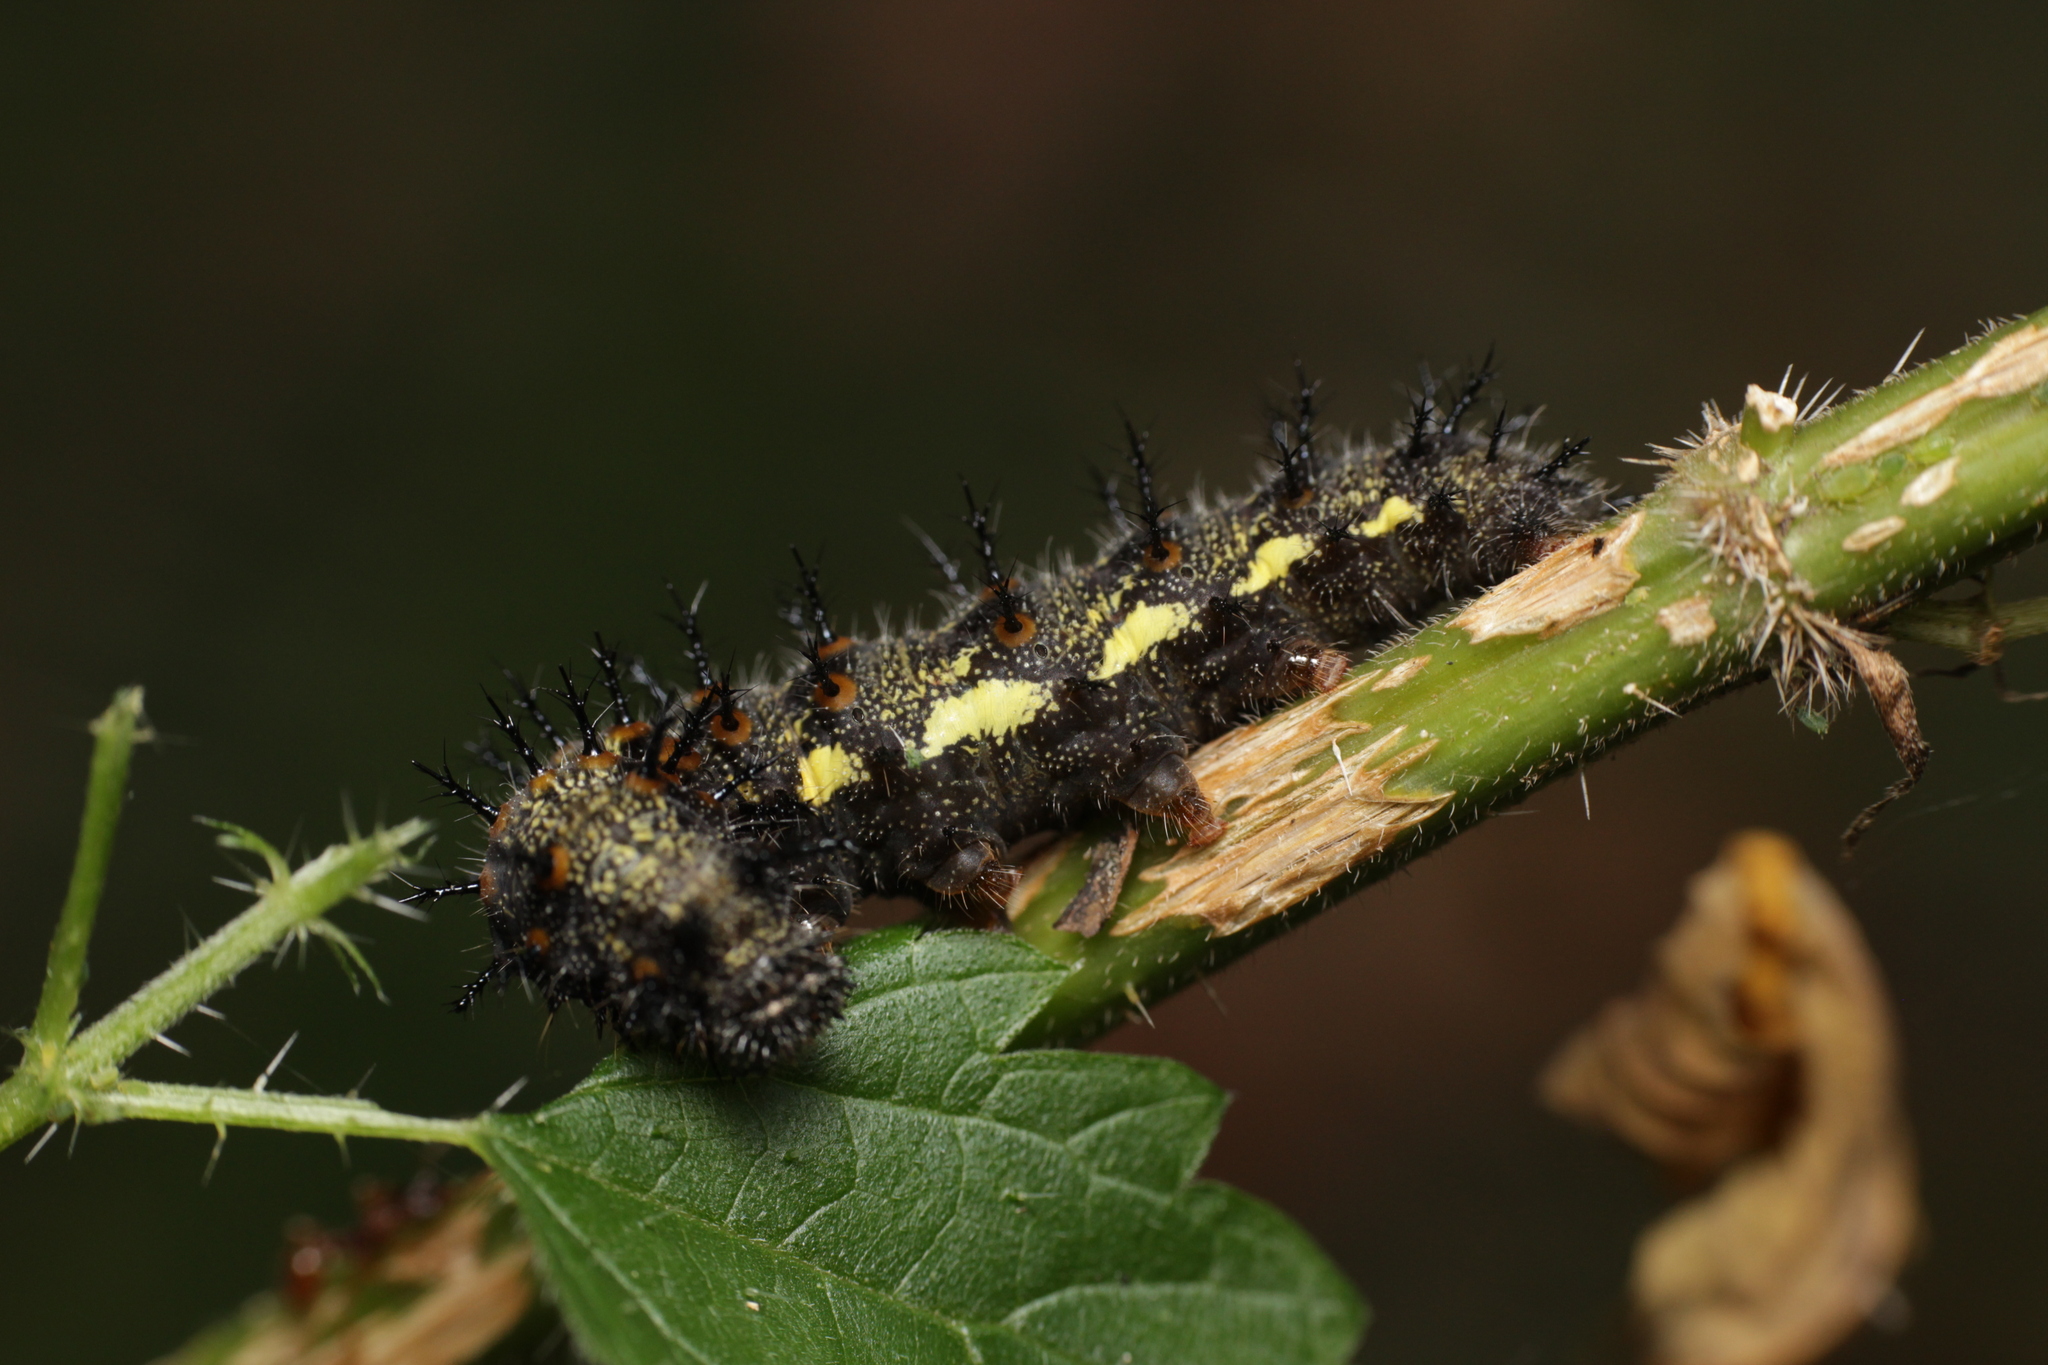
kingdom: Animalia
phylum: Arthropoda
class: Insecta
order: Lepidoptera
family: Nymphalidae
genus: Vanessa
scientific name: Vanessa atalanta
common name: Red admiral
